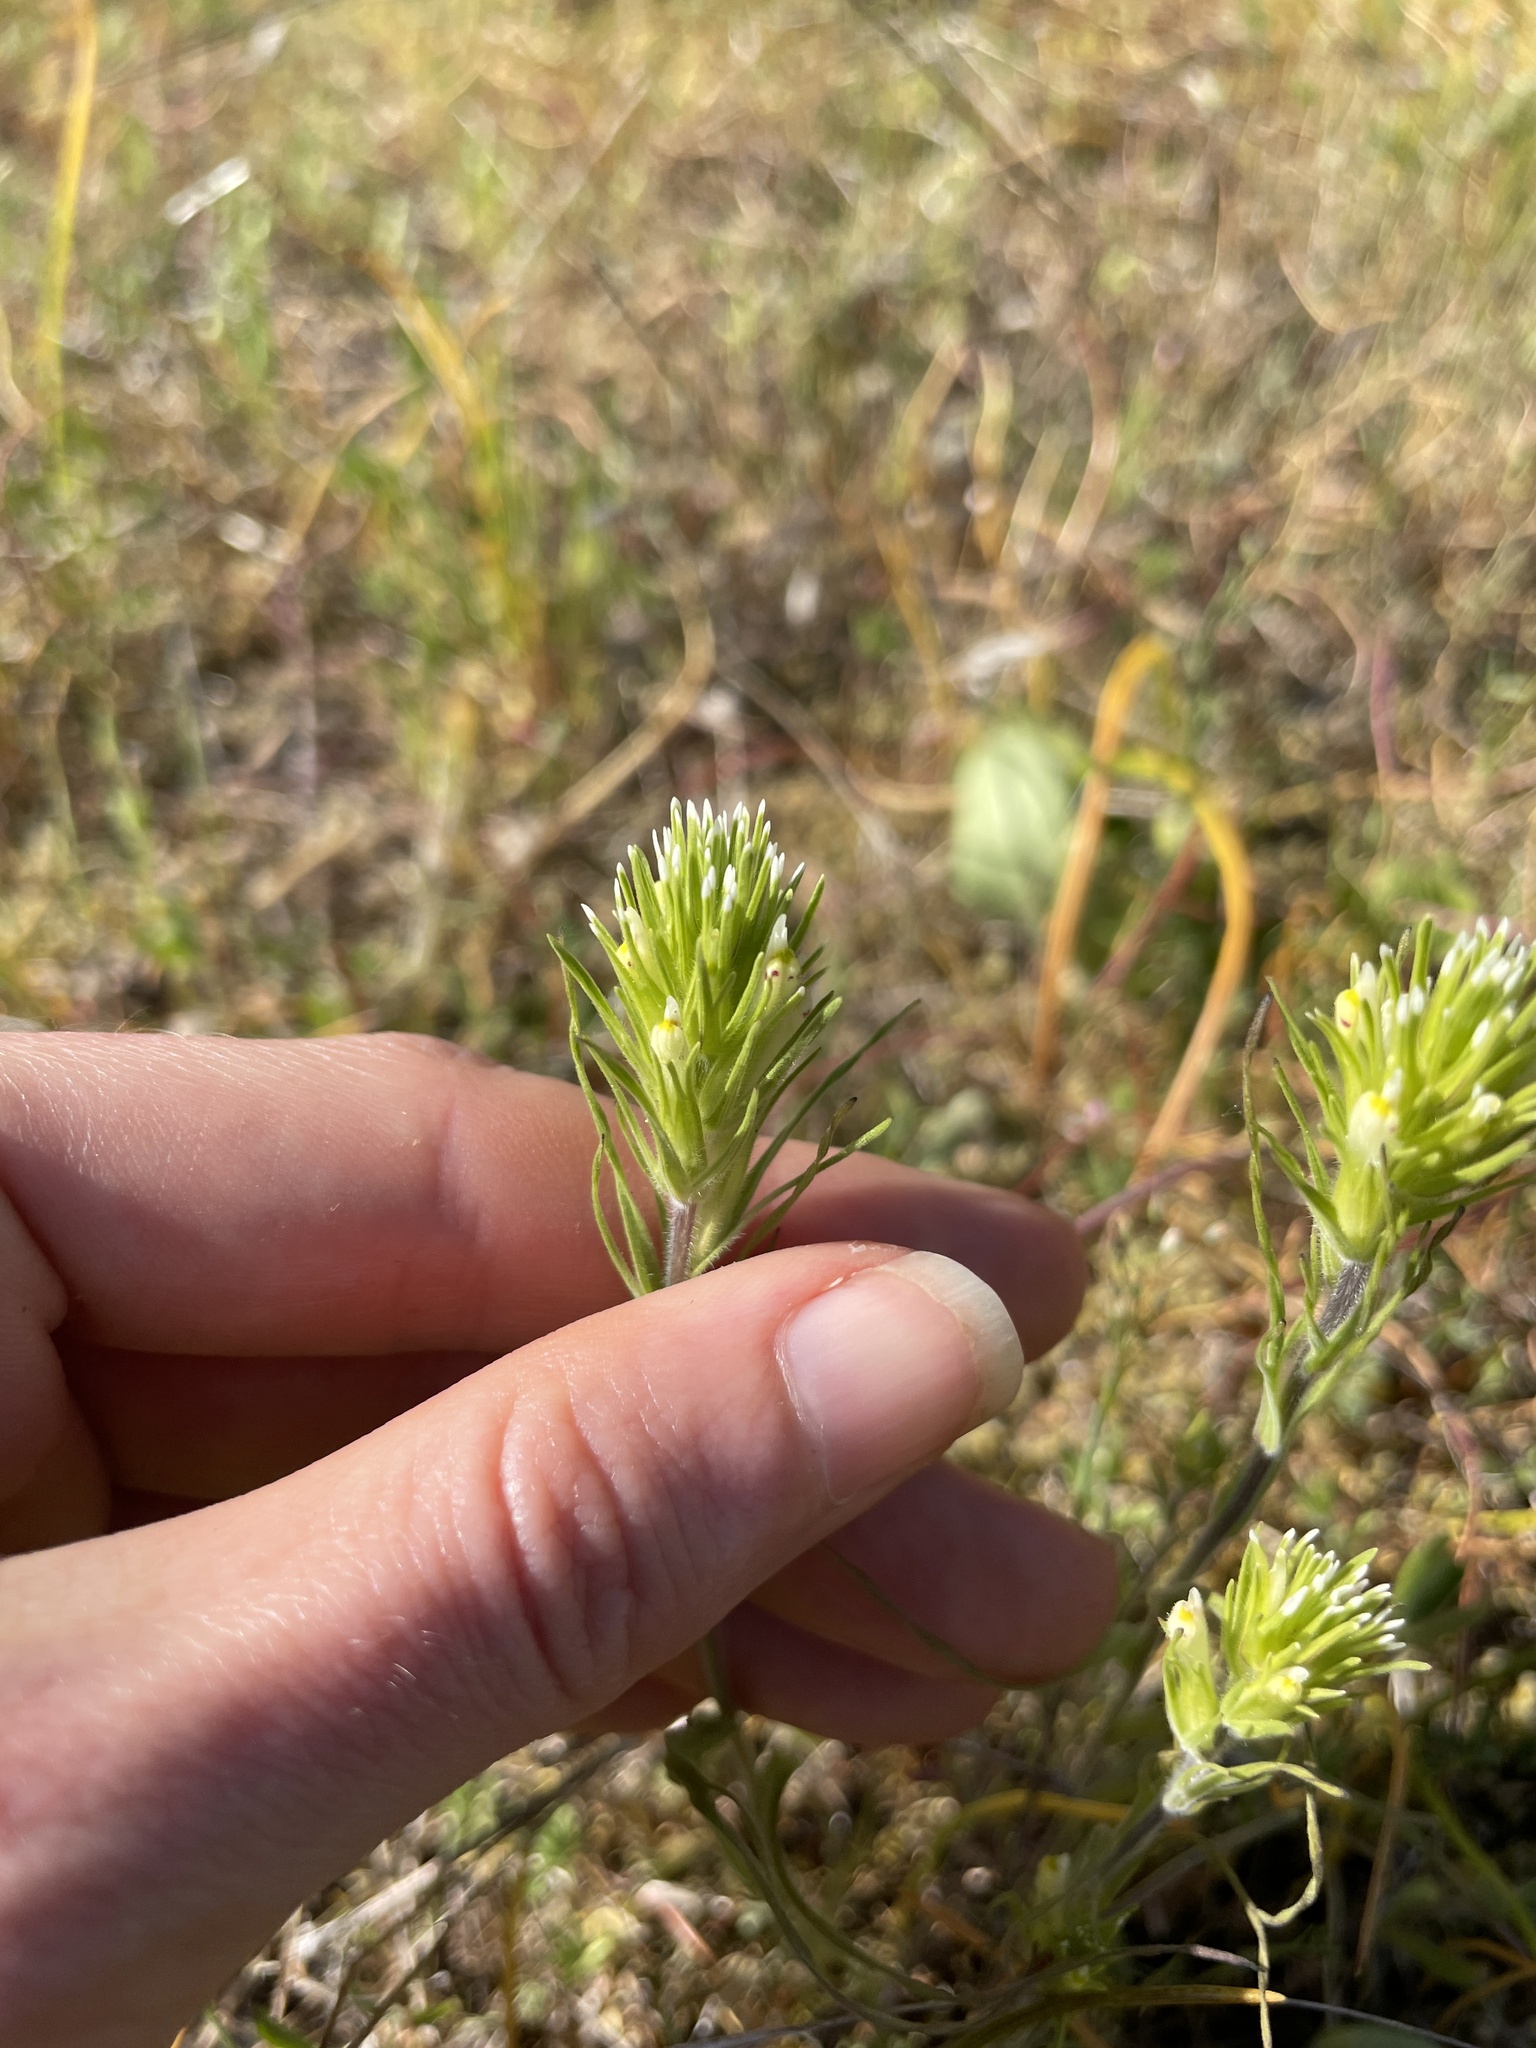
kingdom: Plantae
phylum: Tracheophyta
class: Magnoliopsida
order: Lamiales
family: Orobanchaceae
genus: Castilleja
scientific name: Castilleja attenuata
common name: Valley tassels
